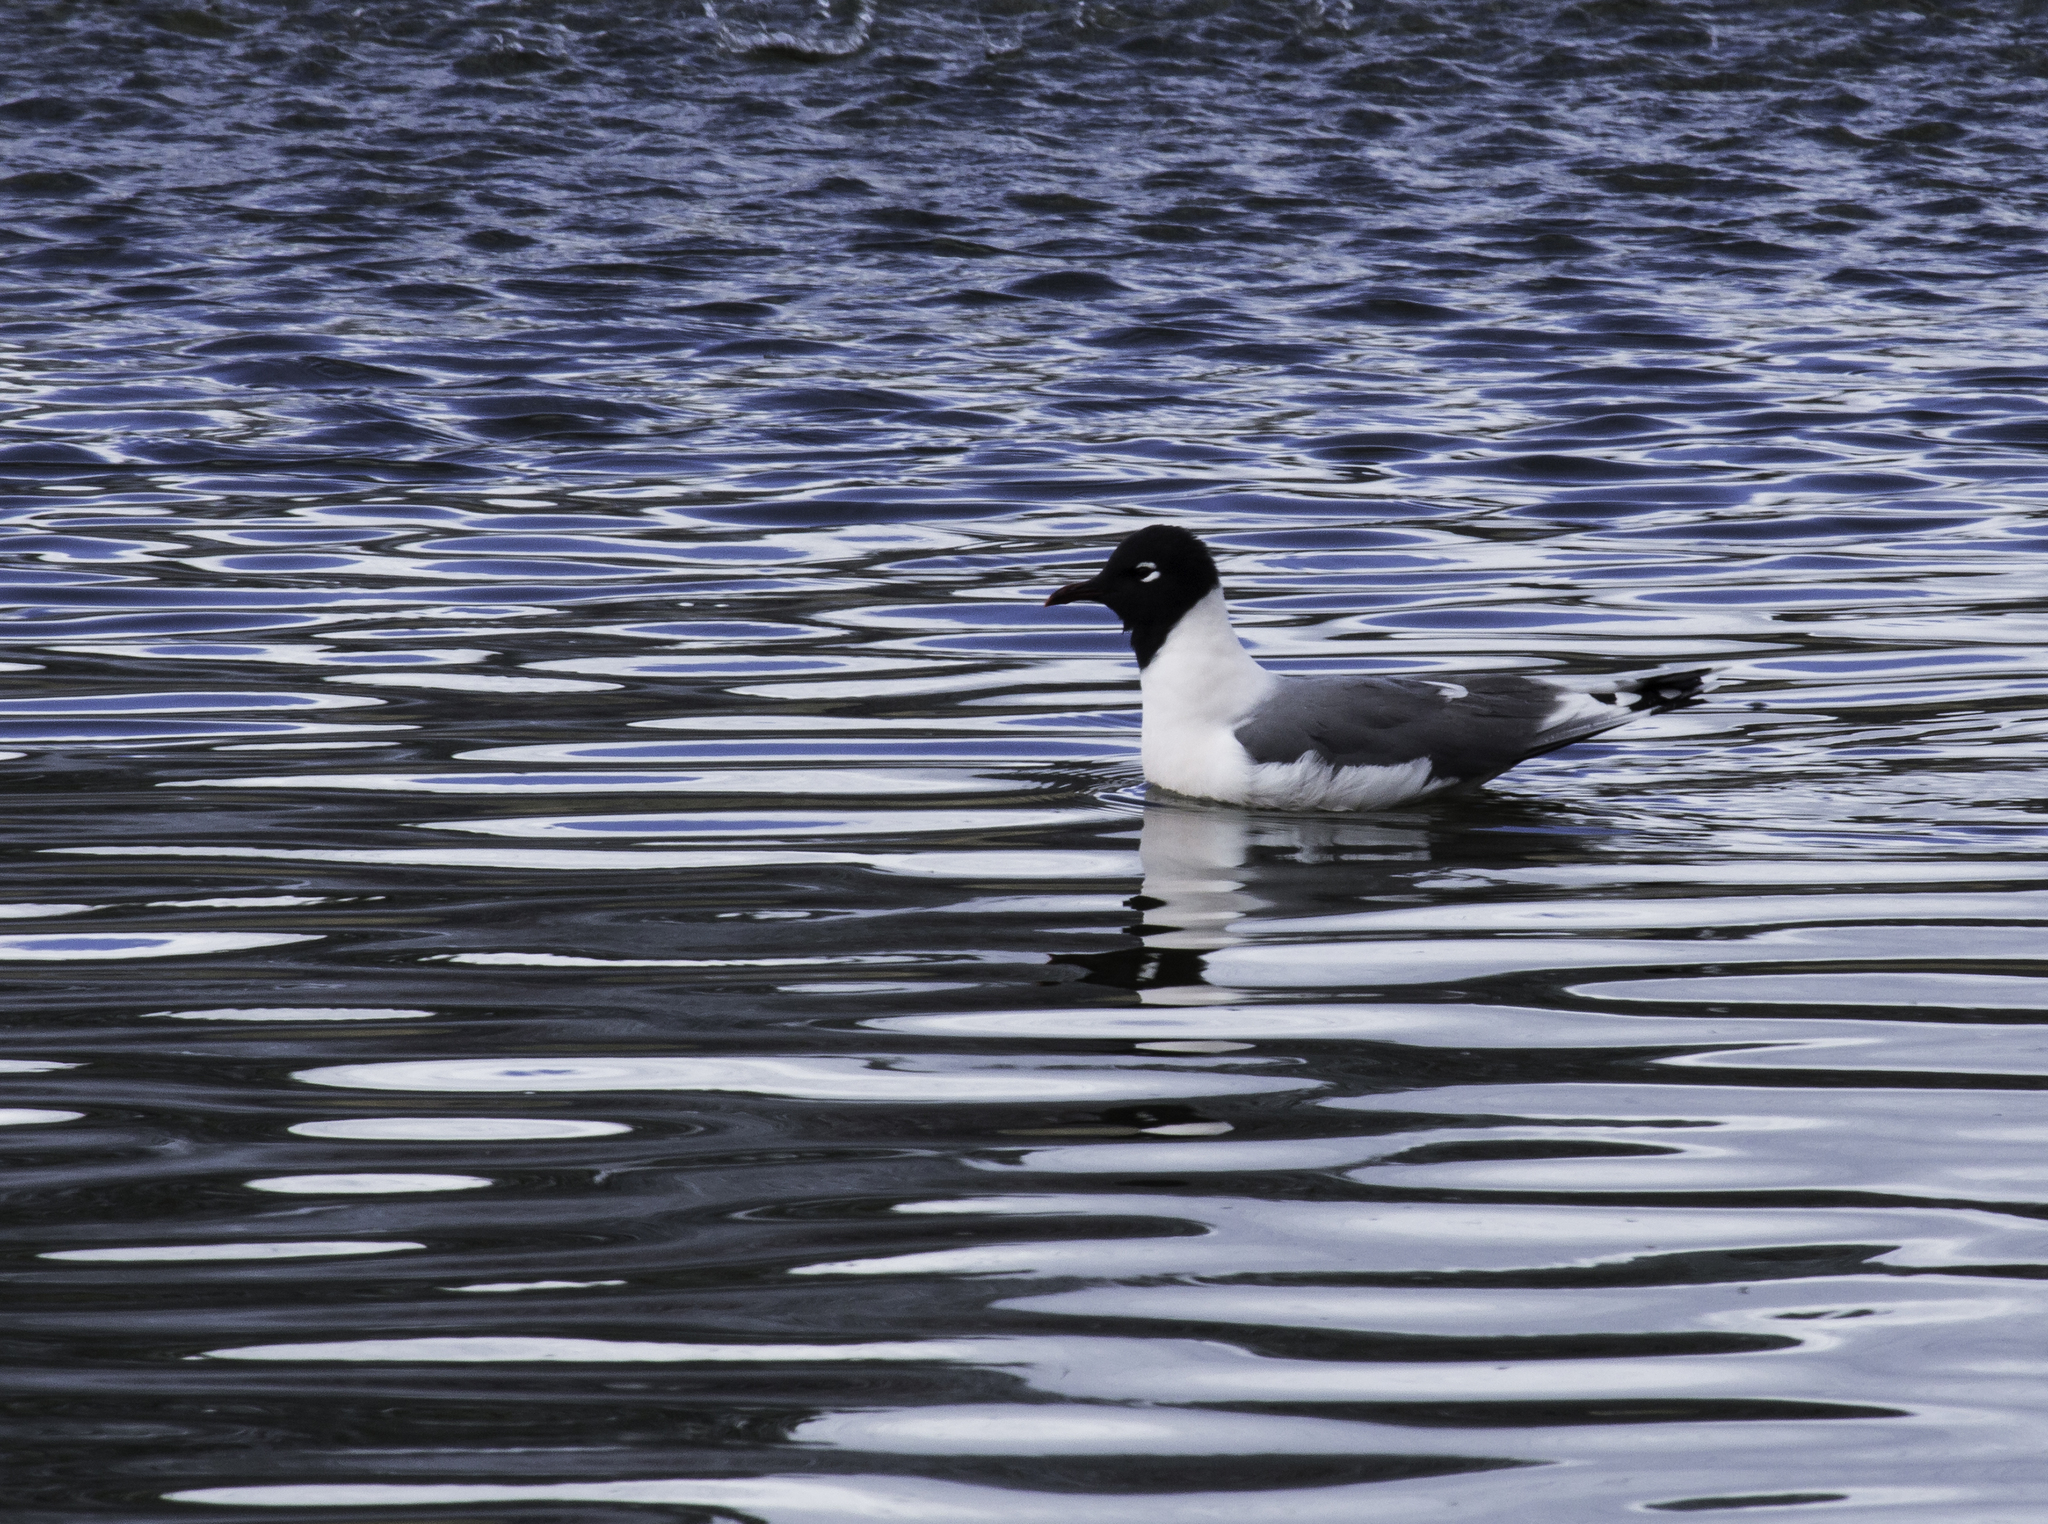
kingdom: Animalia
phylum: Chordata
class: Aves
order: Charadriiformes
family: Laridae
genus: Leucophaeus
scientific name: Leucophaeus pipixcan
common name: Franklin's gull
